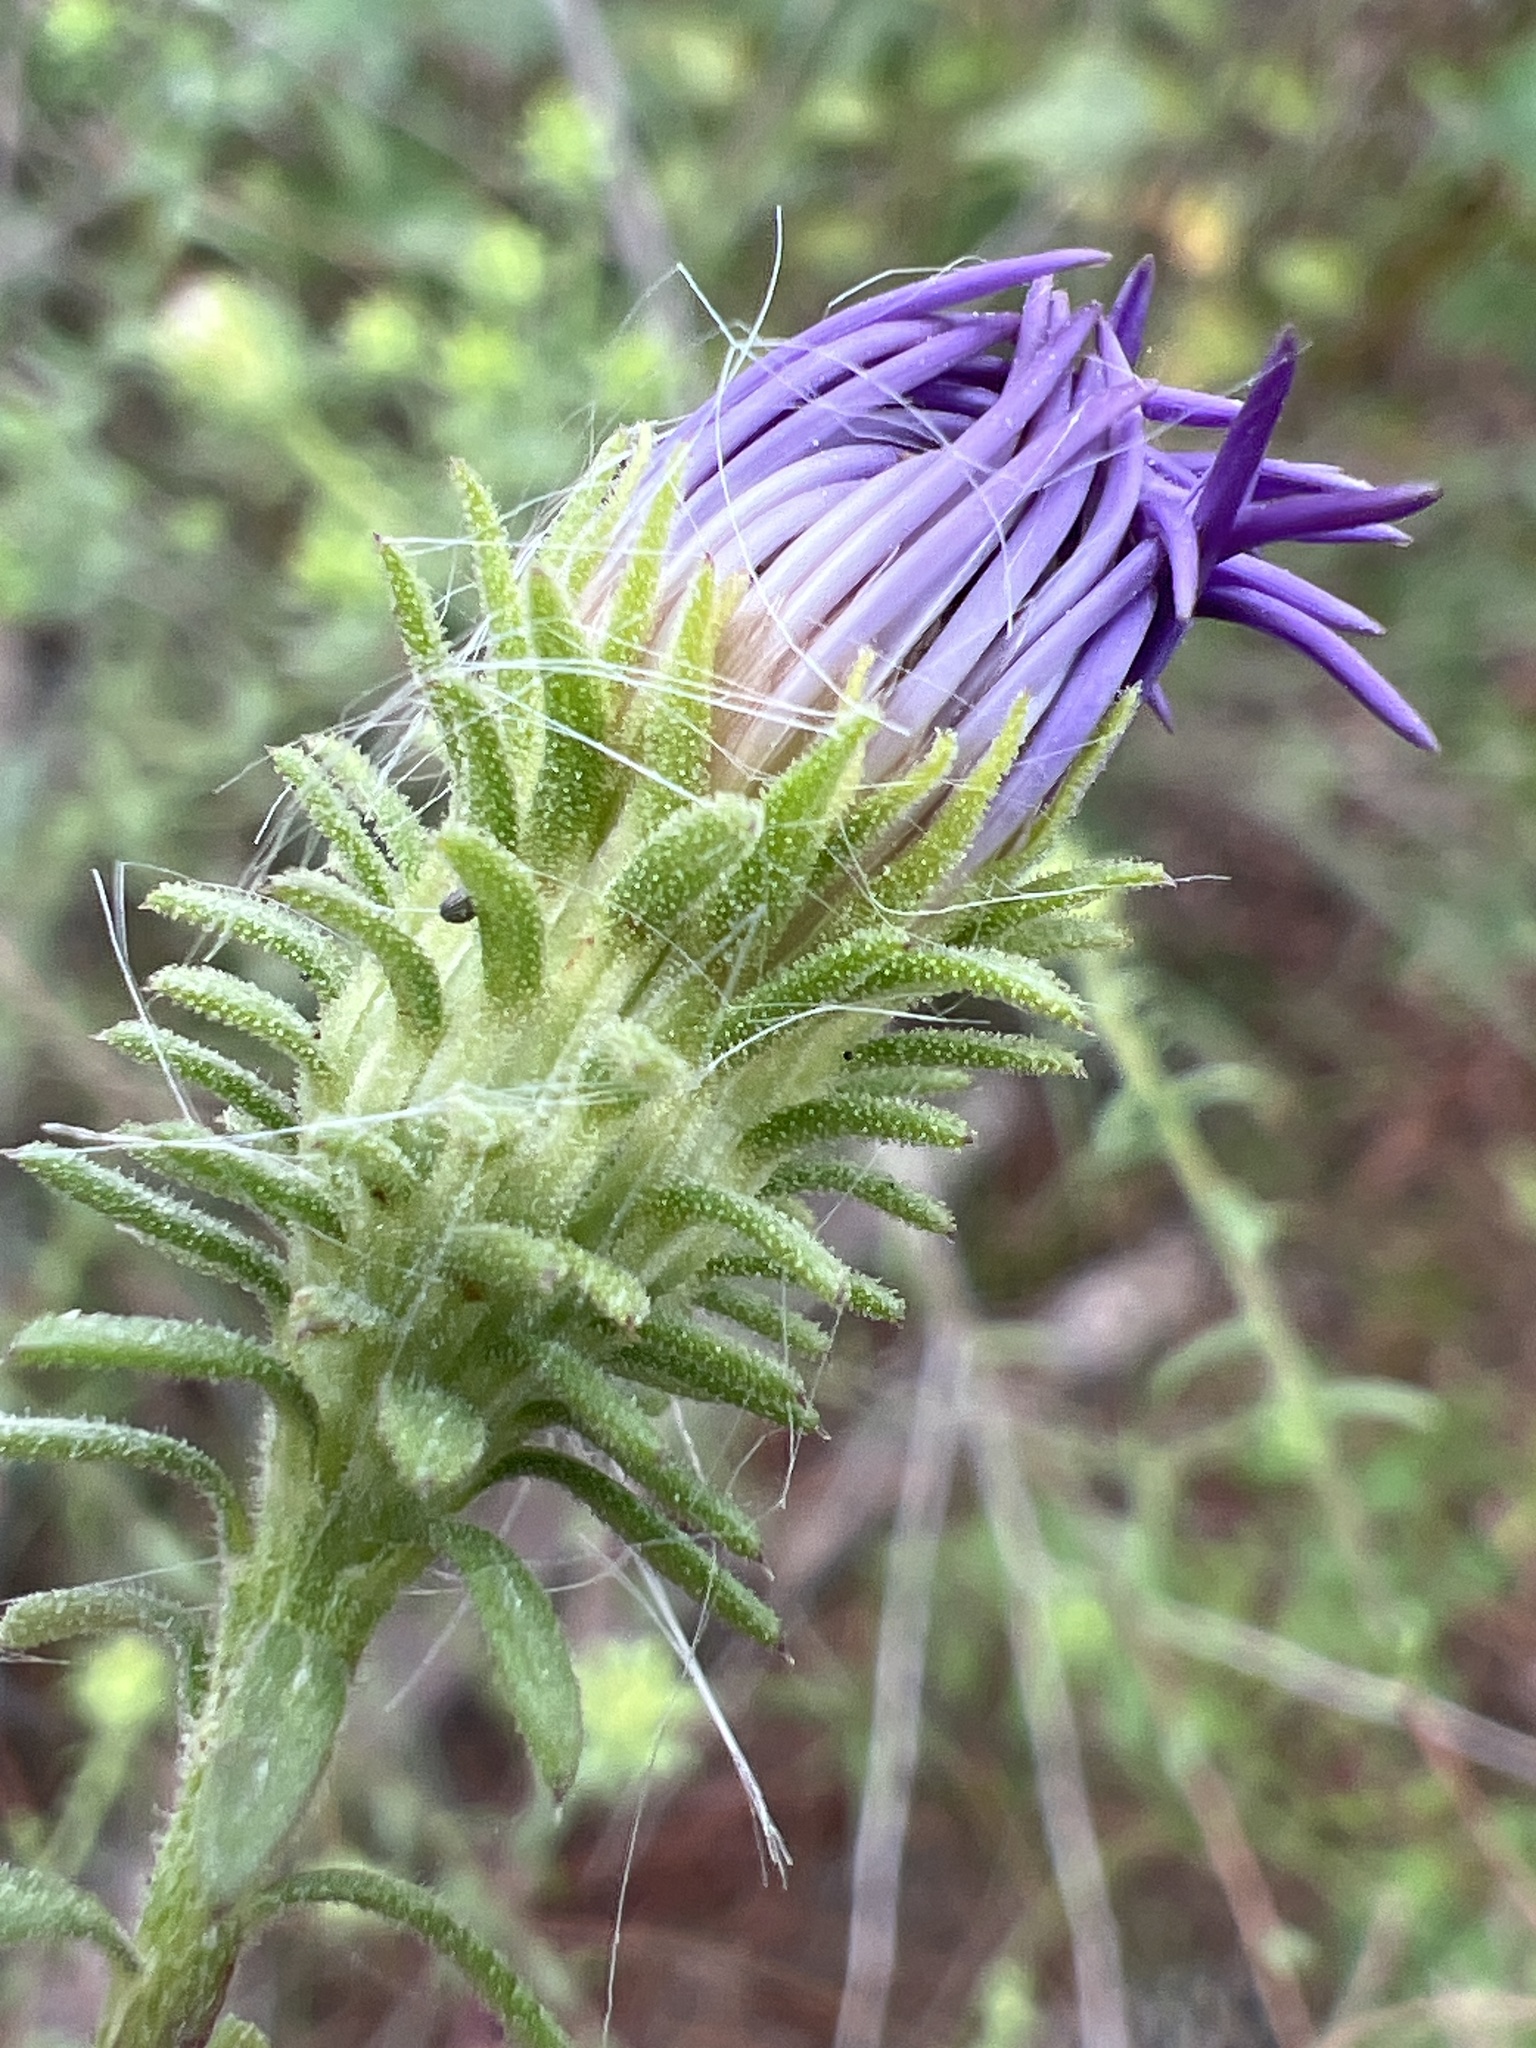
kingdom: Plantae
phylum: Tracheophyta
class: Magnoliopsida
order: Asterales
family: Asteraceae
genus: Symphyotrichum
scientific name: Symphyotrichum grandiflorum
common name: Big-head aster
